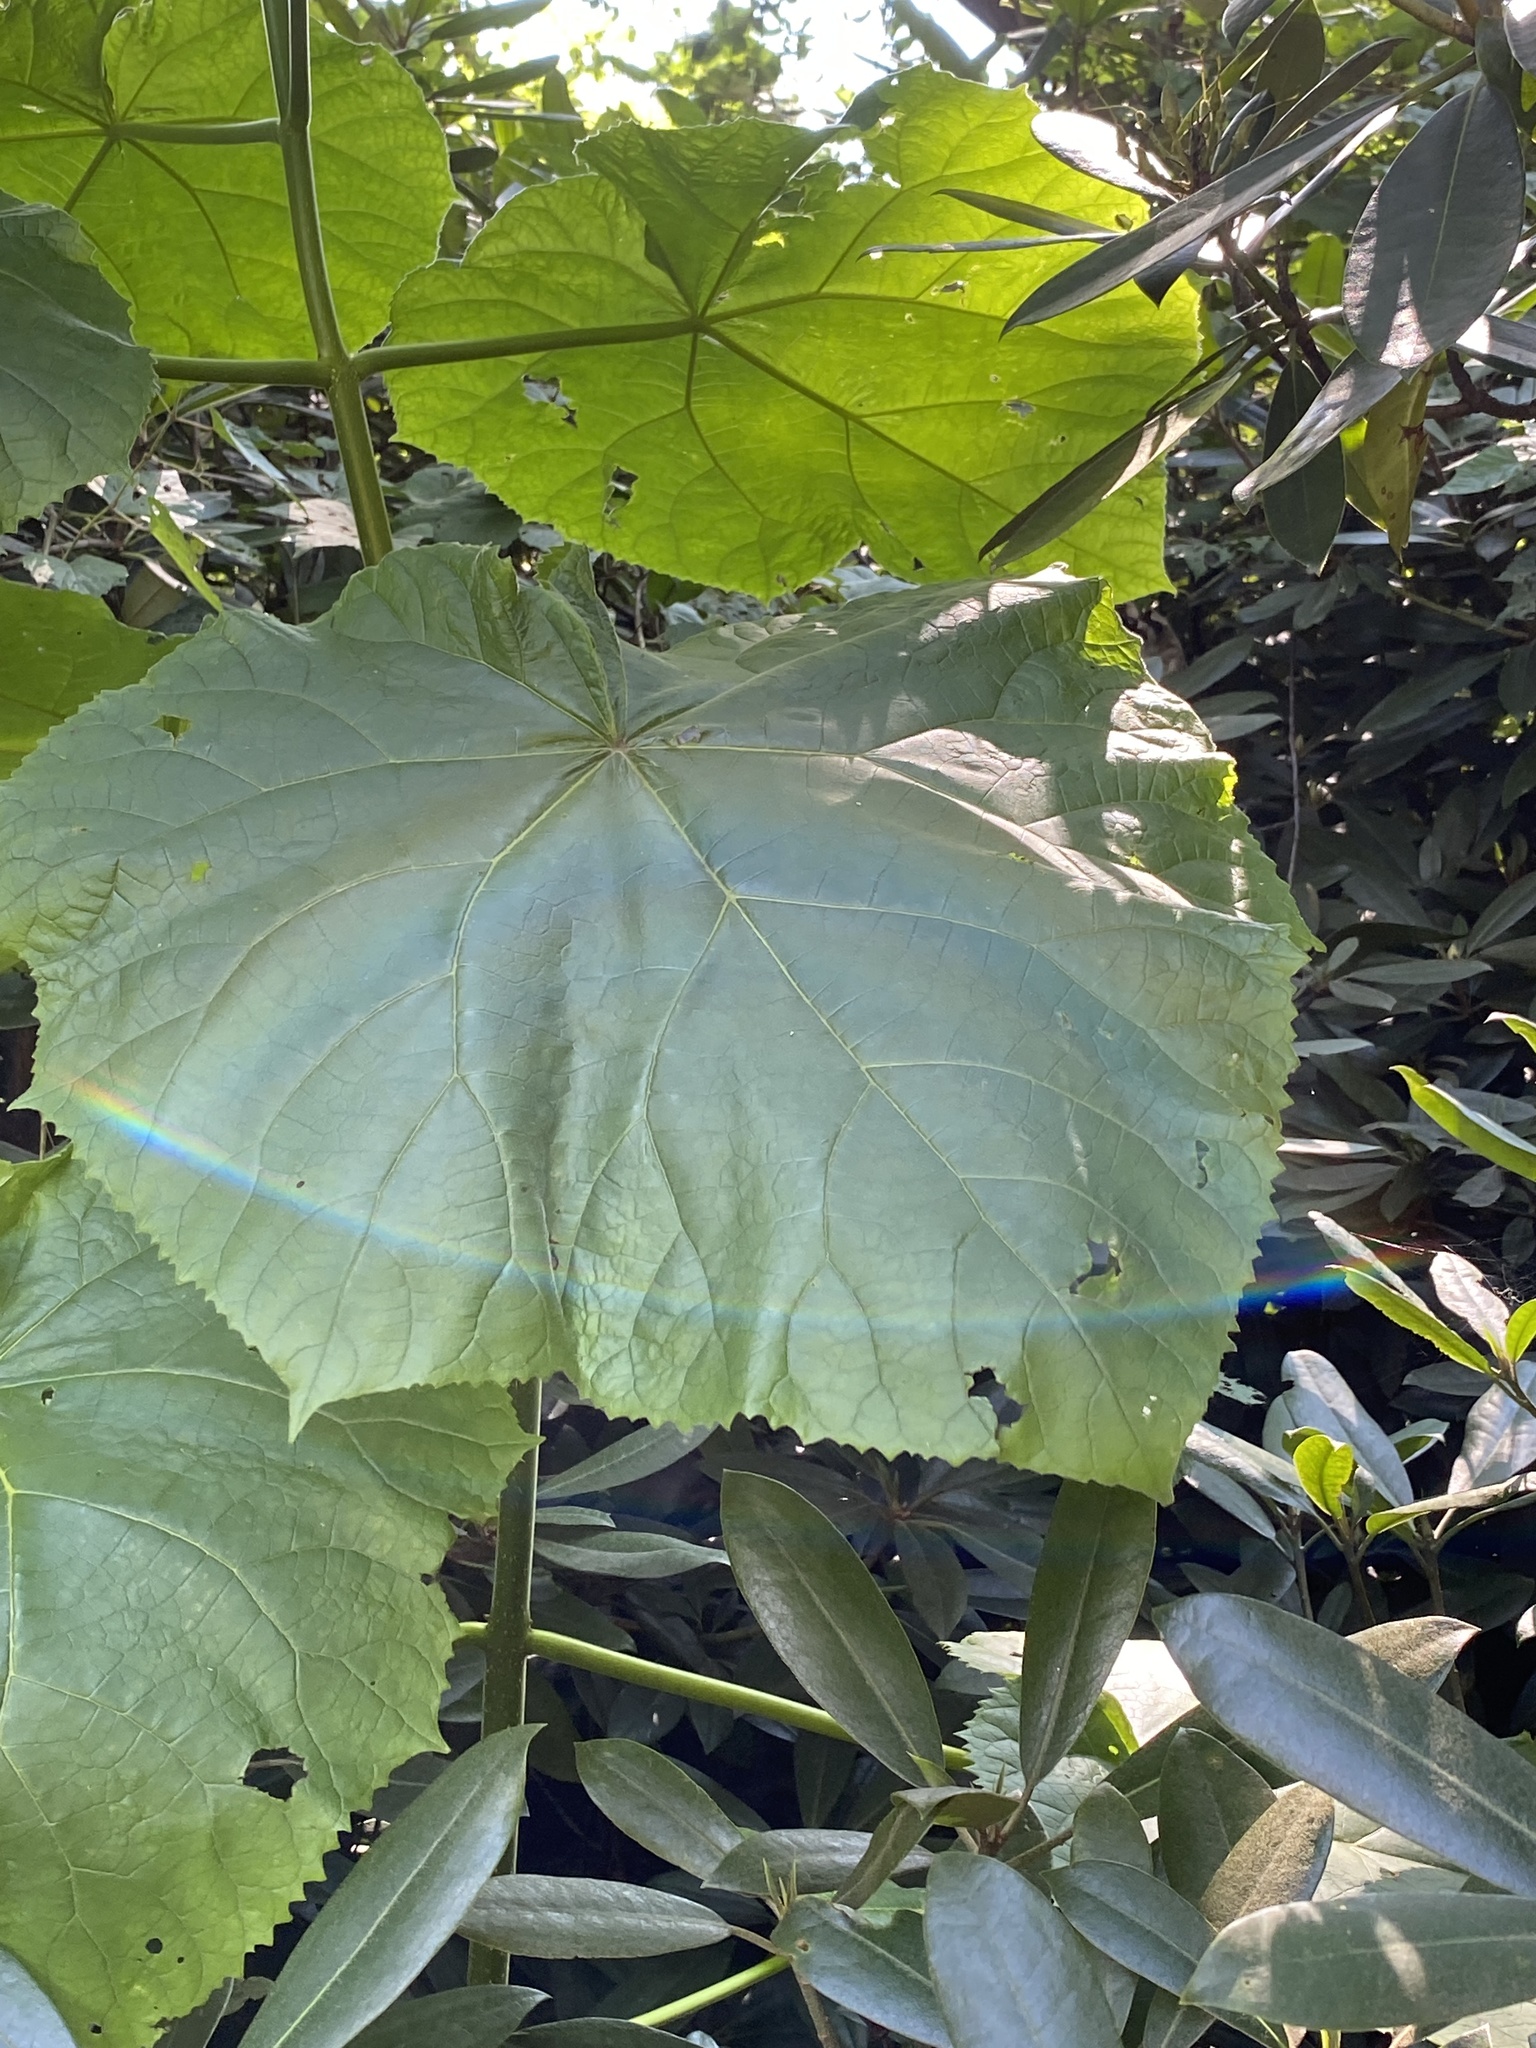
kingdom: Plantae
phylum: Tracheophyta
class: Magnoliopsida
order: Lamiales
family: Paulowniaceae
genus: Paulownia
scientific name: Paulownia tomentosa
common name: Foxglove-tree
